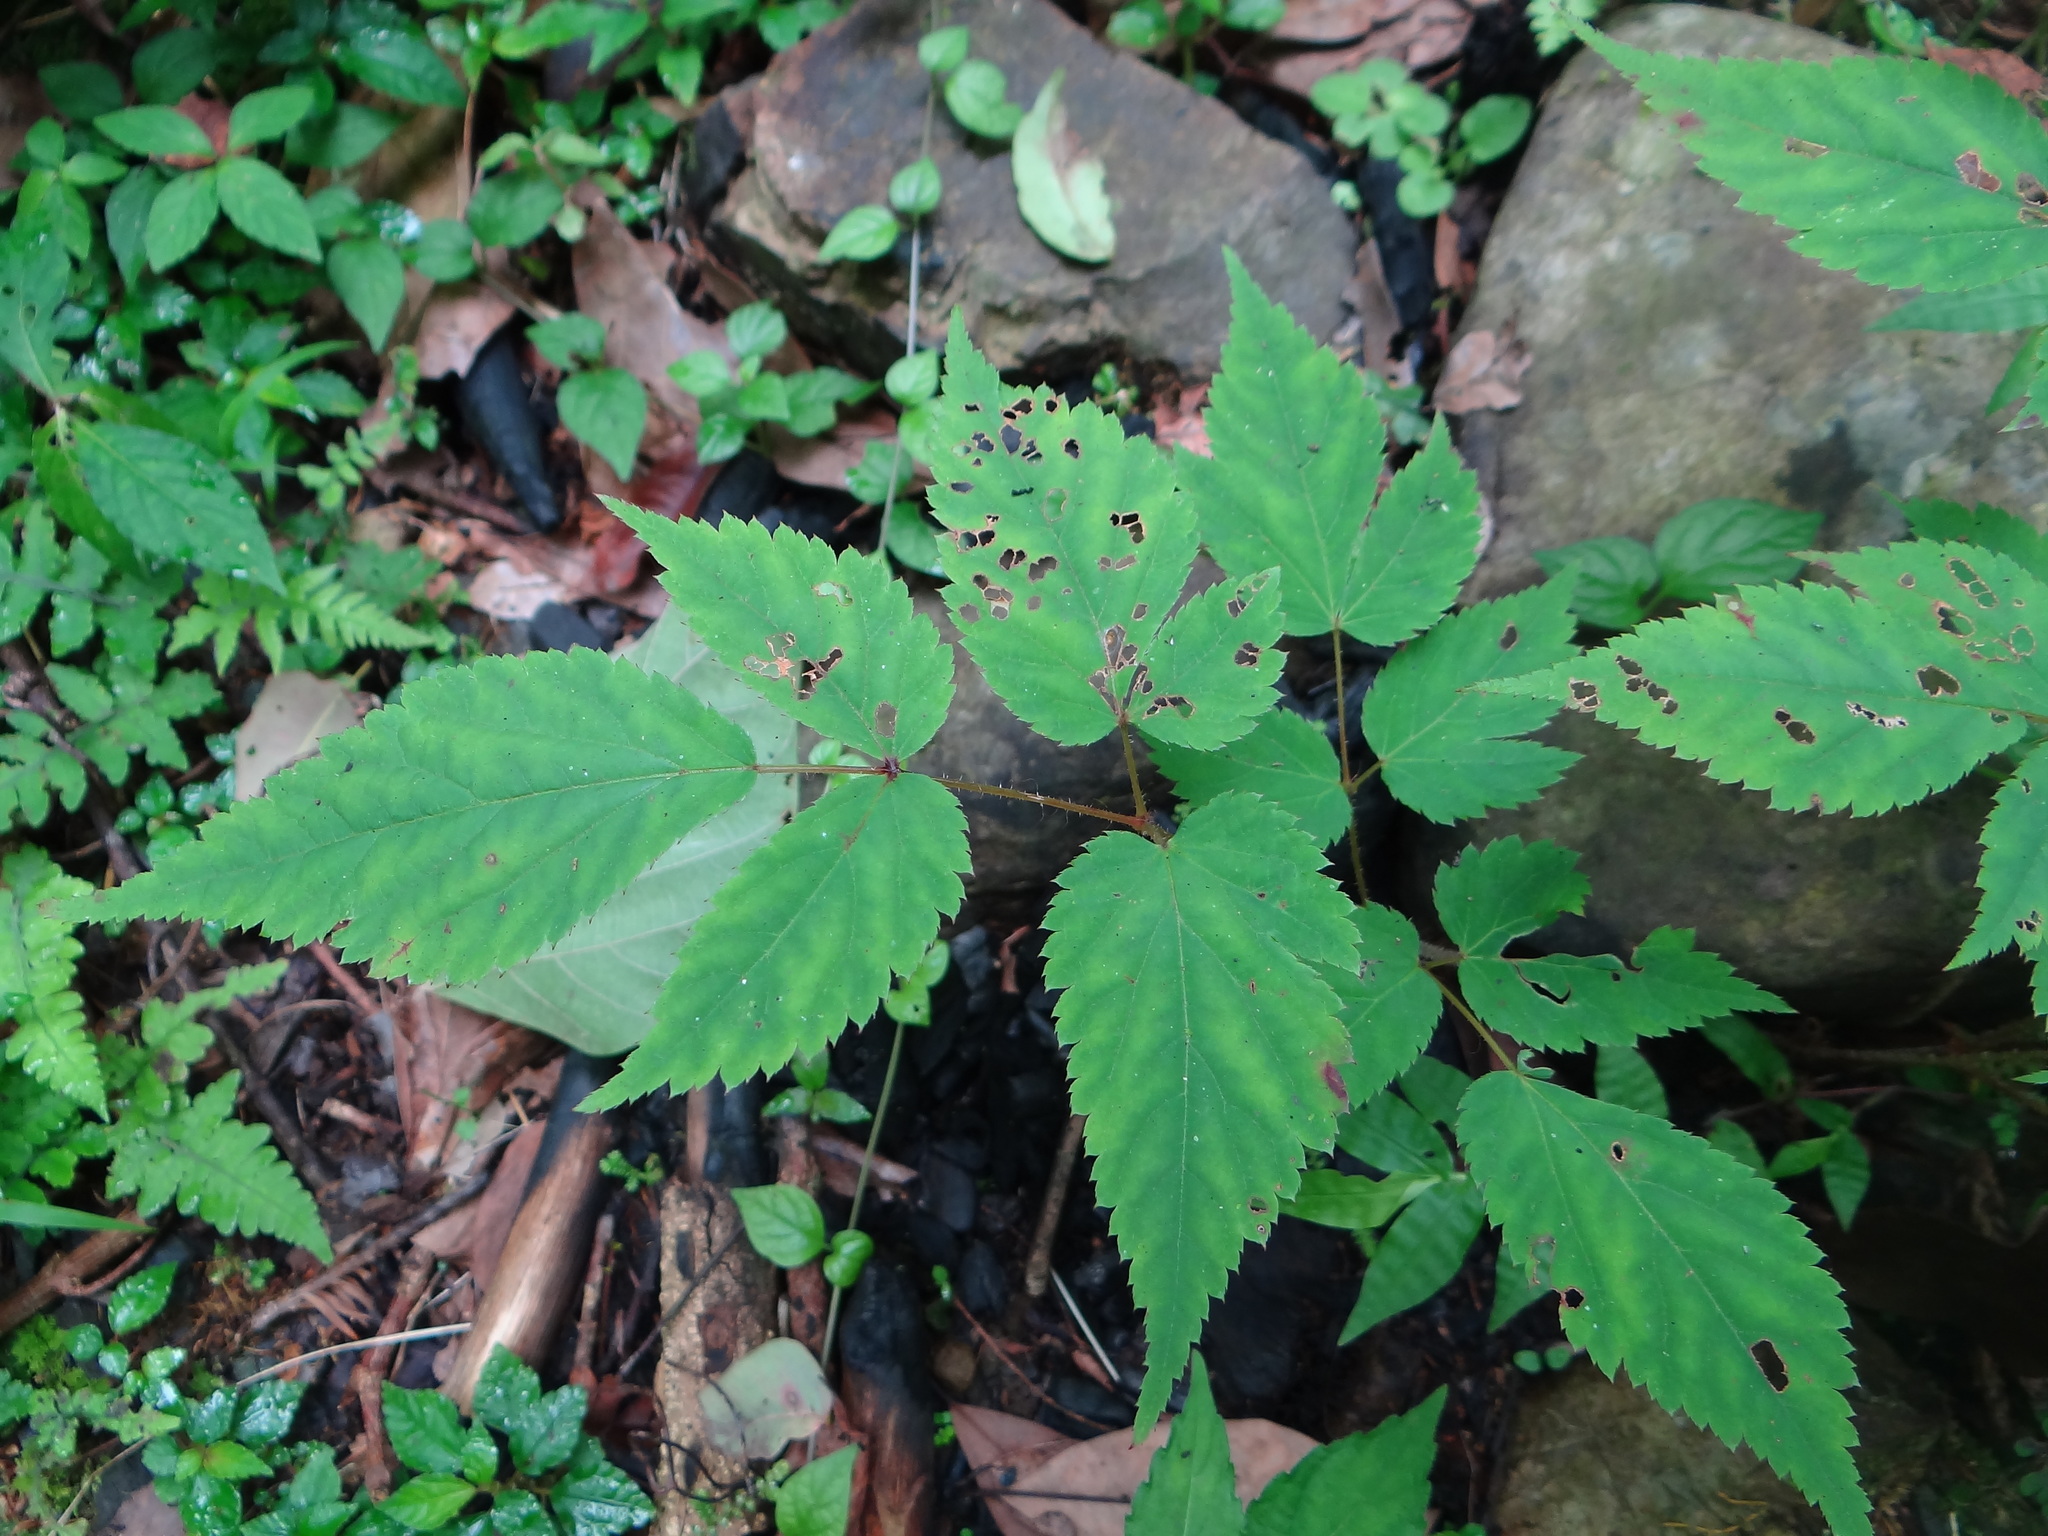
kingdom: Plantae
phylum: Tracheophyta
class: Magnoliopsida
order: Saxifragales
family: Saxifragaceae
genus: Astilbe
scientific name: Astilbe longicarpa
